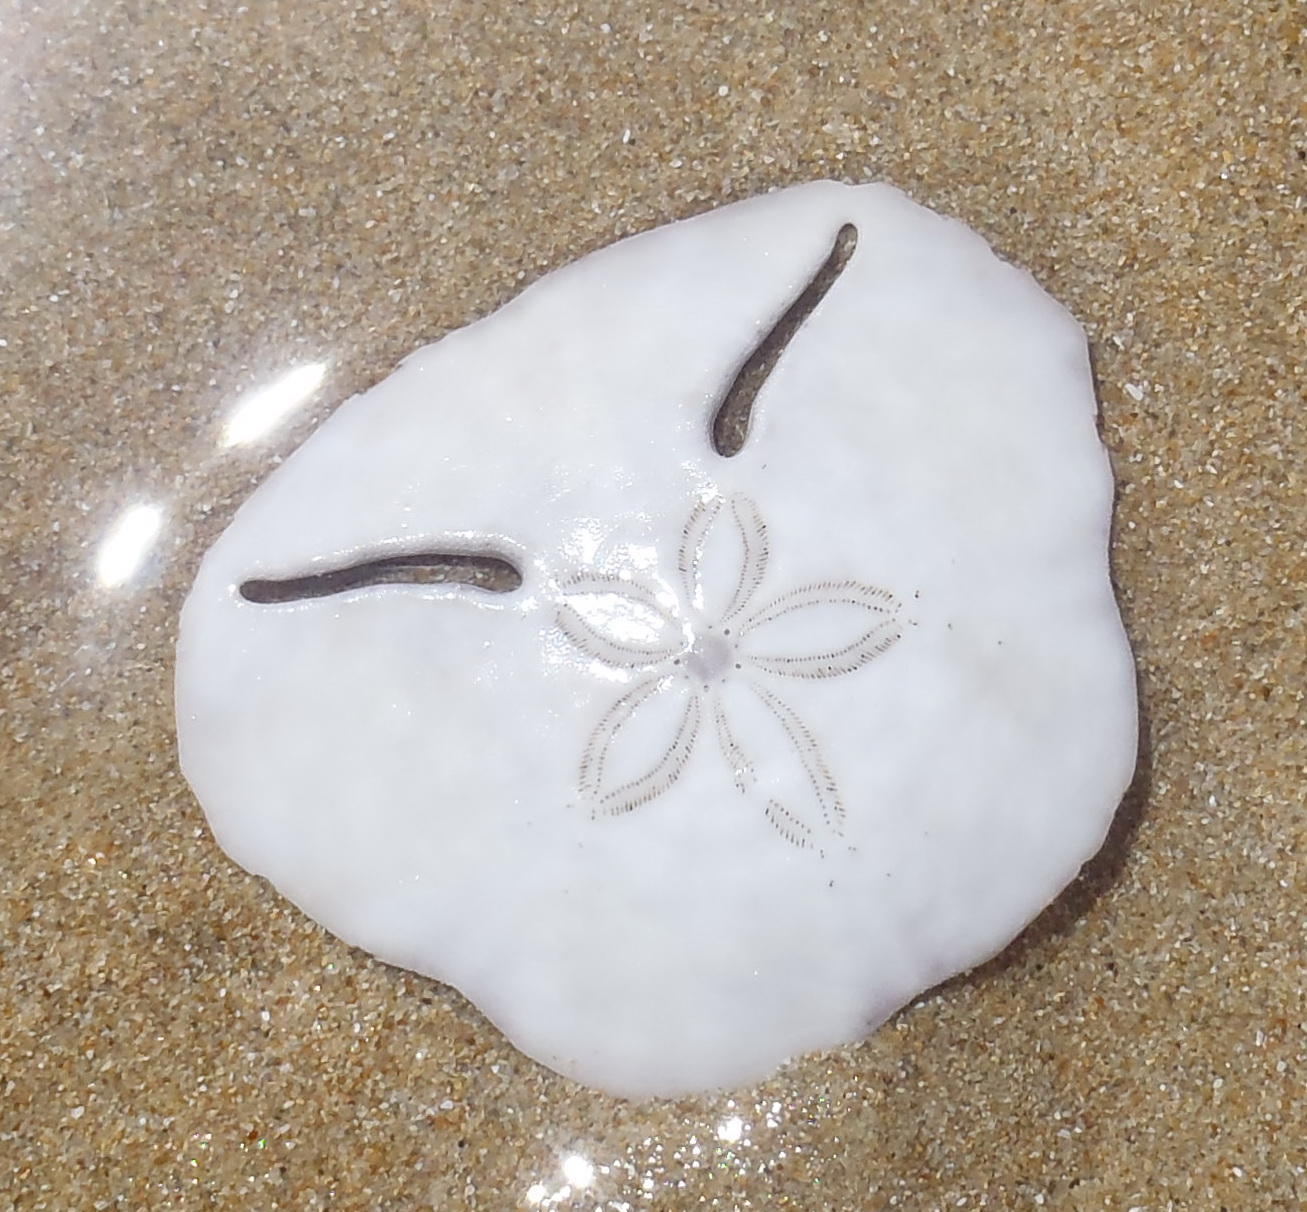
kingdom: Animalia
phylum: Echinodermata
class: Echinoidea
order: Echinolampadacea
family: Astriclypeidae
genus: Echinodiscus
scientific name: Echinodiscus bisperforatus
